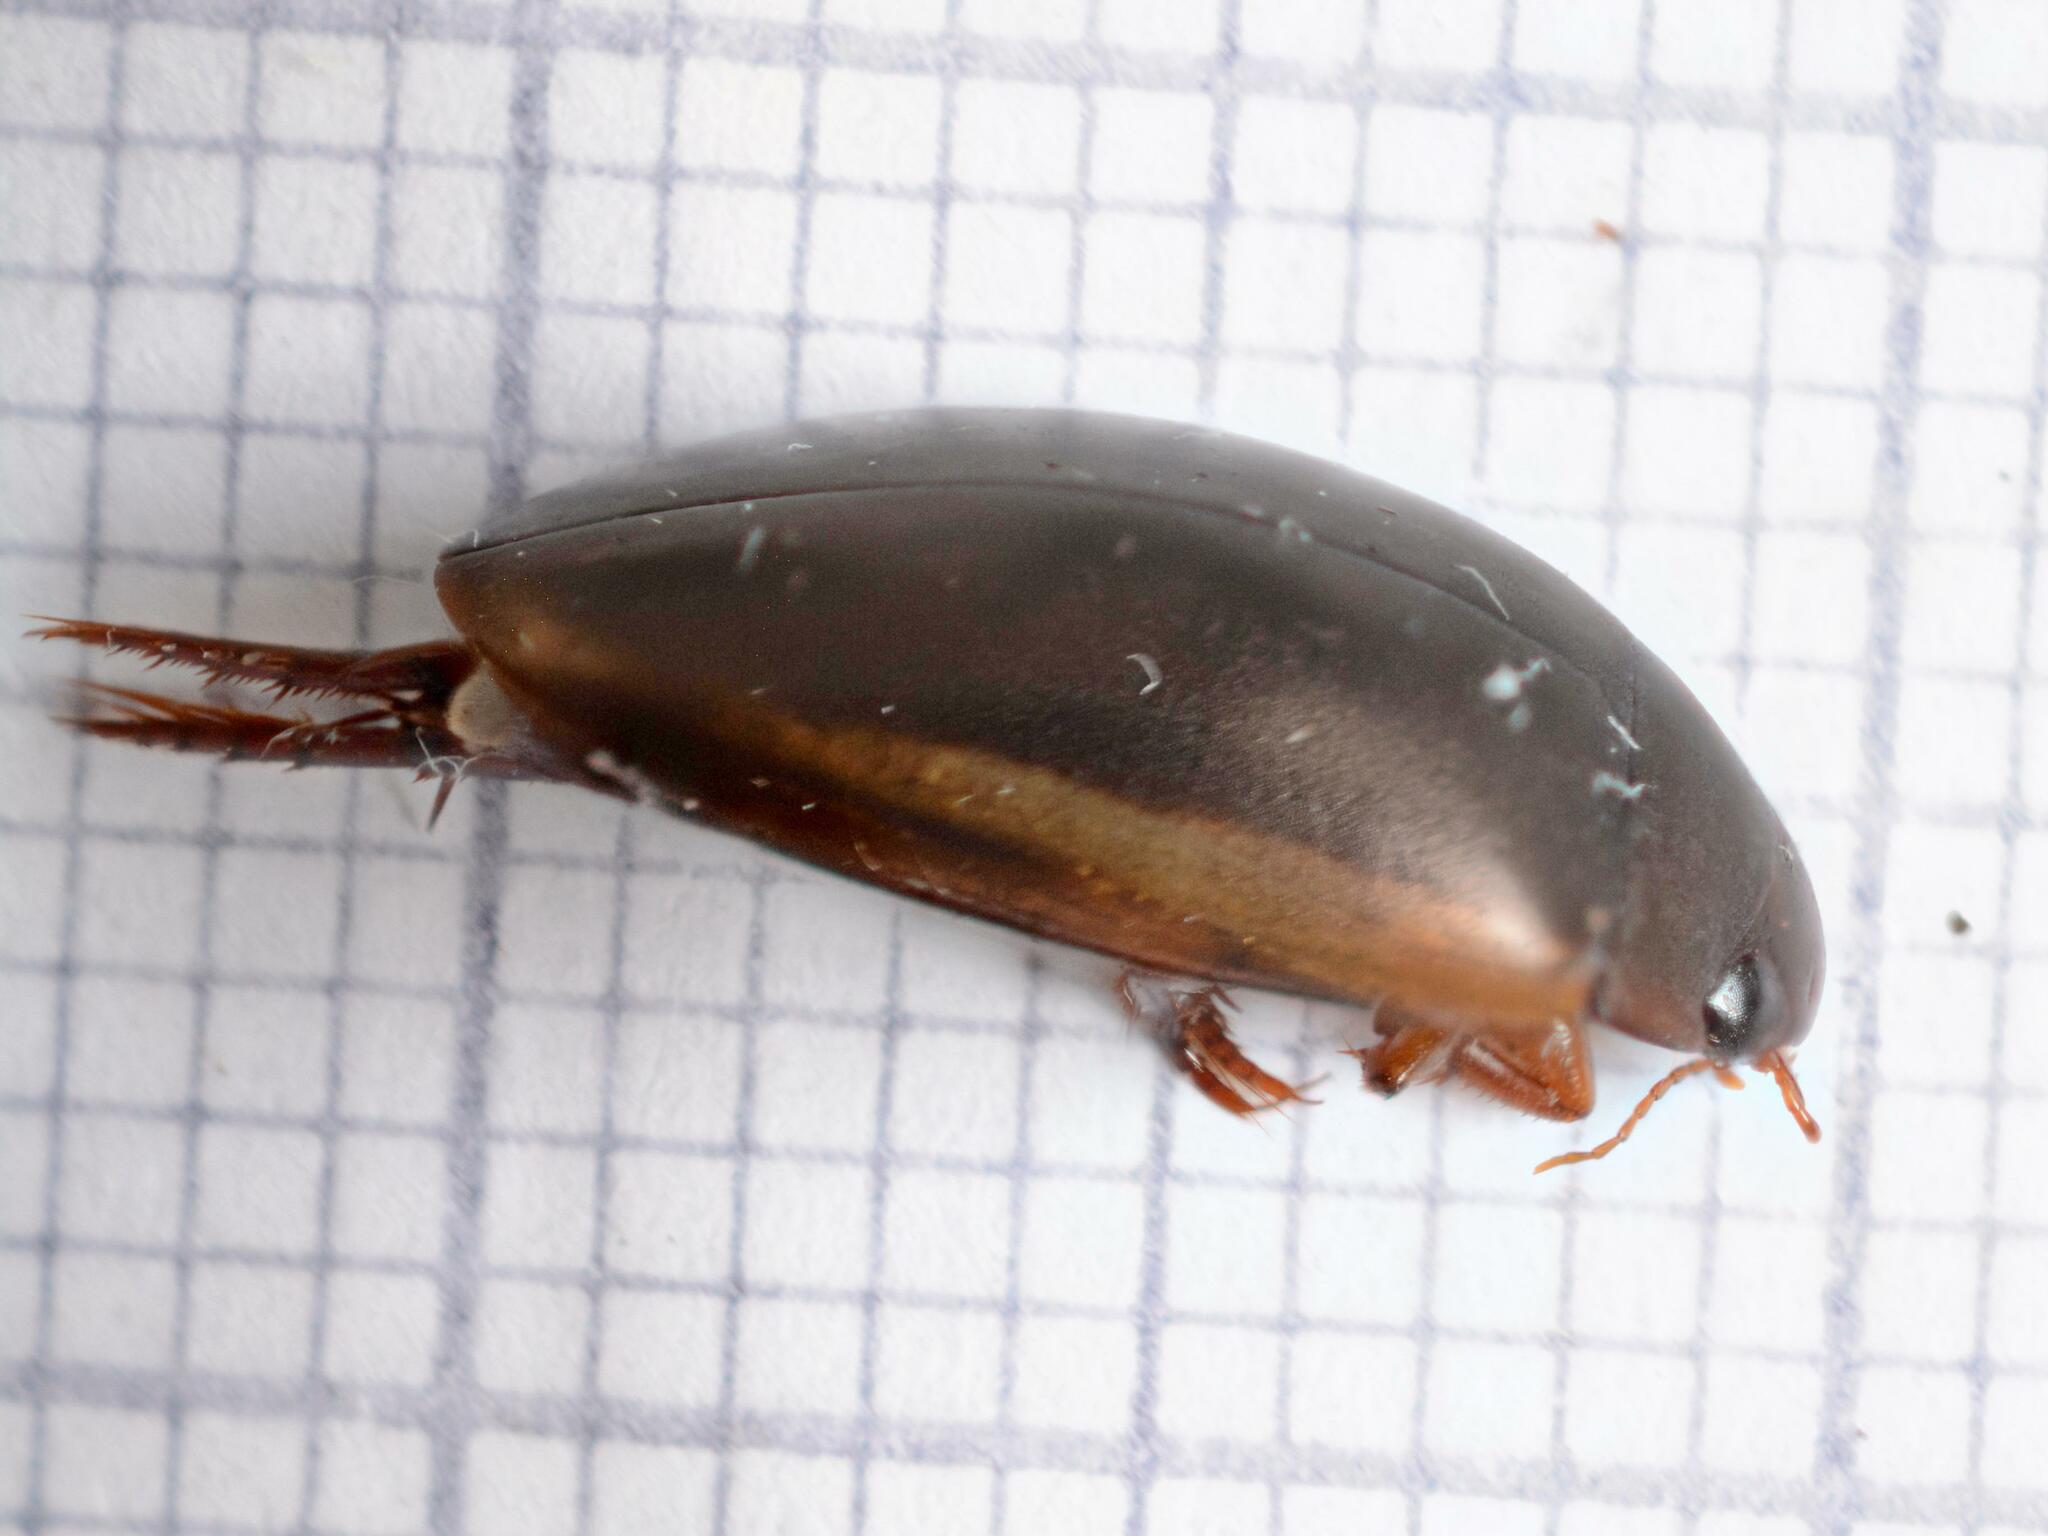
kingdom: Animalia
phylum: Arthropoda
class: Insecta
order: Coleoptera
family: Dytiscidae
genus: Ilybius
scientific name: Ilybius fuliginosus
